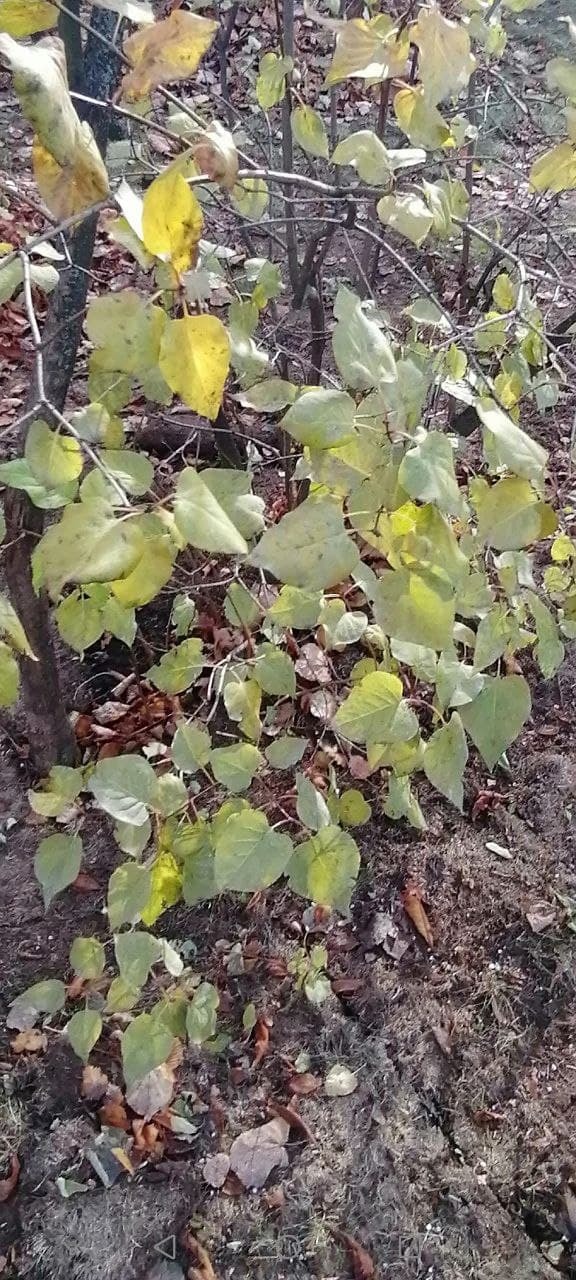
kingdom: Plantae
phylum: Tracheophyta
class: Magnoliopsida
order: Lamiales
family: Oleaceae
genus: Syringa
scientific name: Syringa vulgaris
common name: Common lilac
